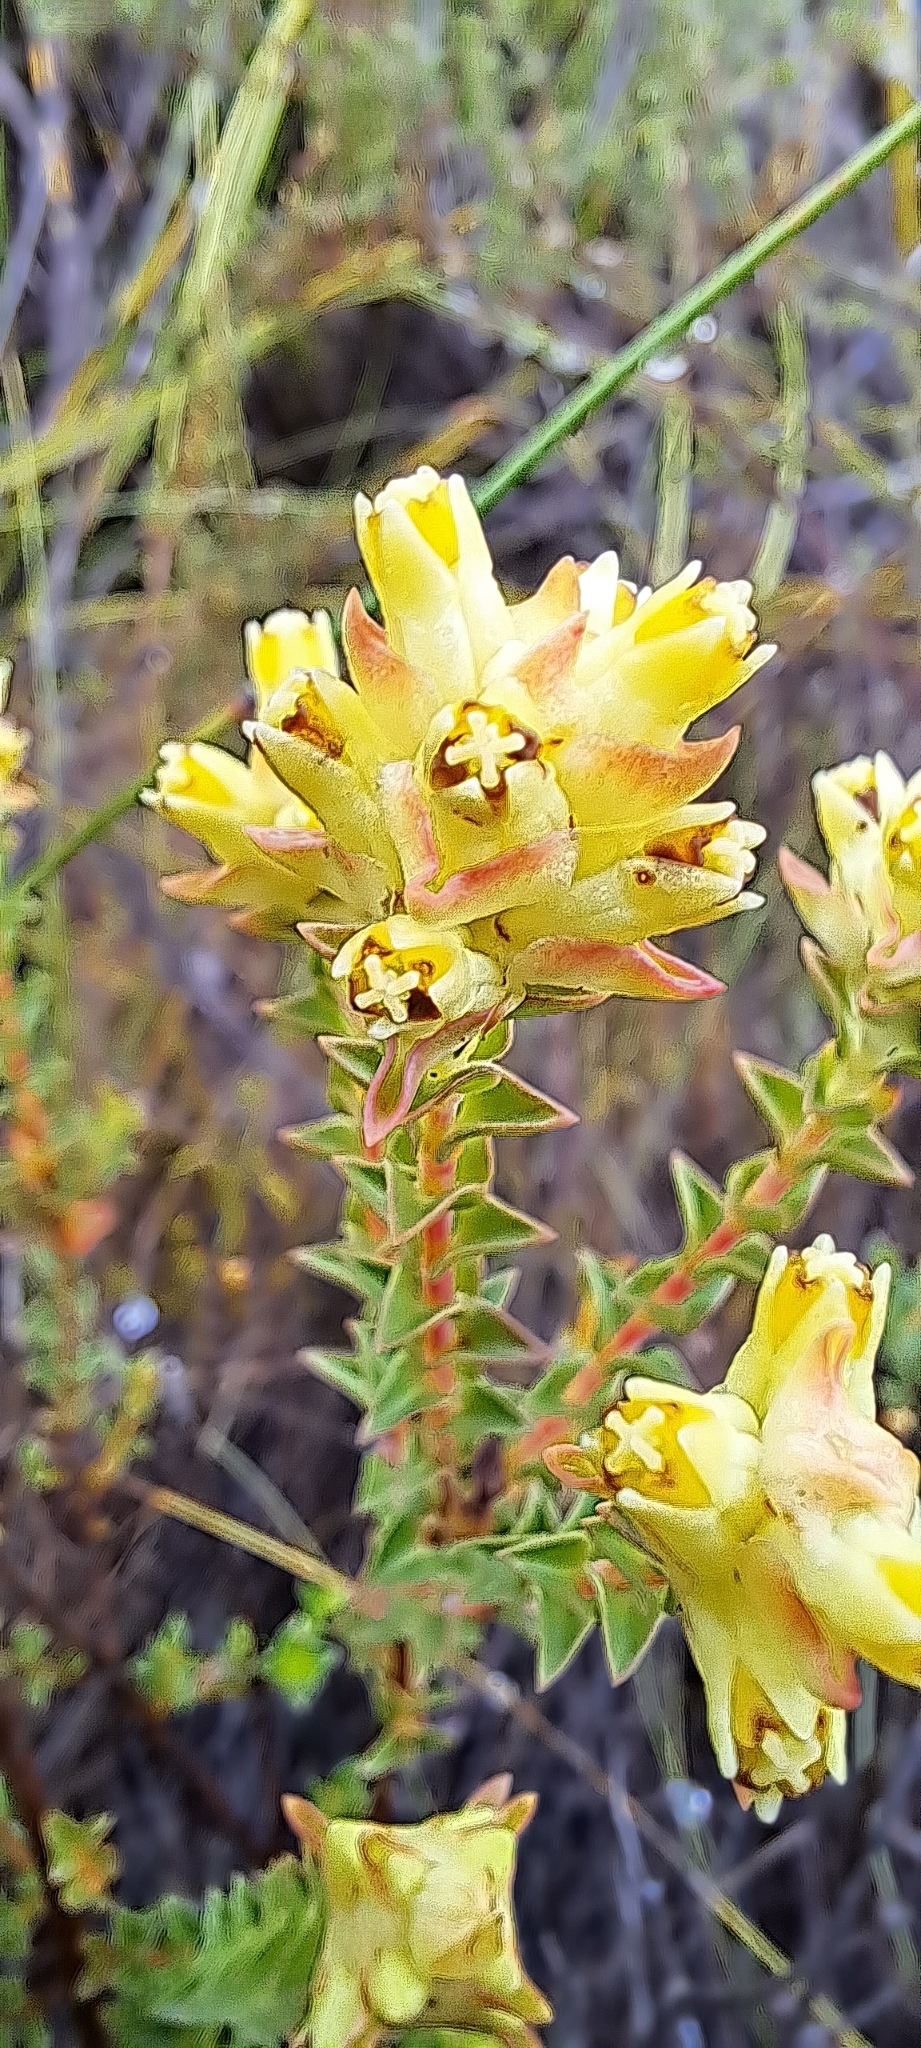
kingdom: Plantae
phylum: Tracheophyta
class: Magnoliopsida
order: Myrtales
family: Penaeaceae
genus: Penaea
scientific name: Penaea mucronata
